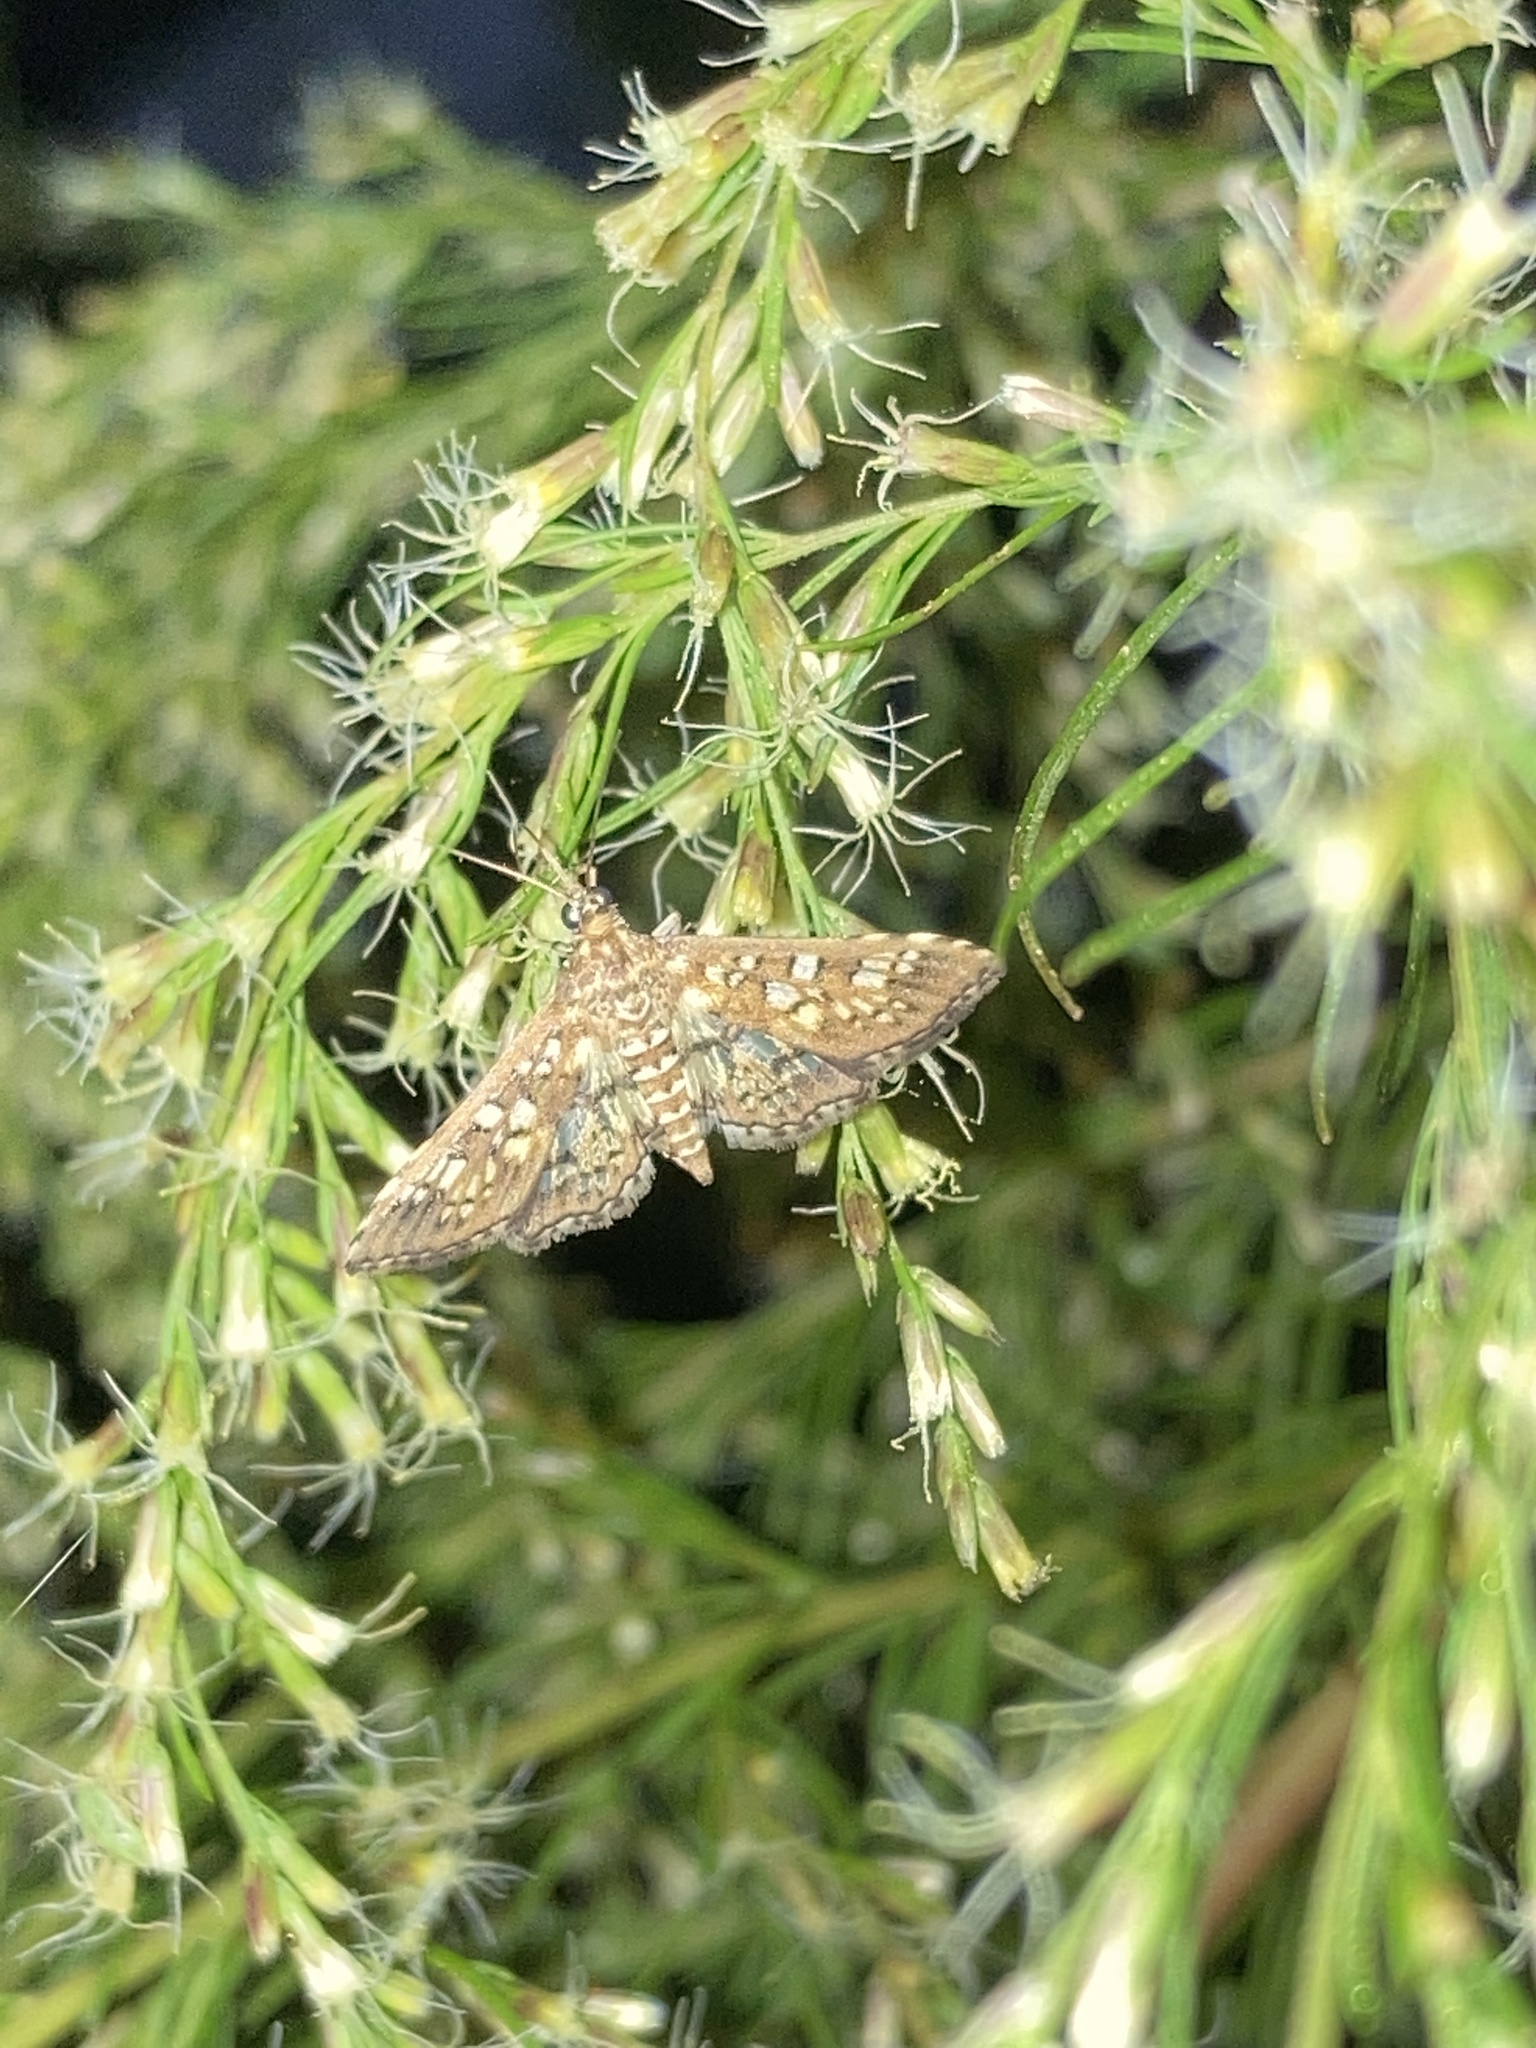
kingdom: Animalia
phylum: Arthropoda
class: Insecta
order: Lepidoptera
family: Crambidae
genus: Samea
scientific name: Samea ecclesialis
